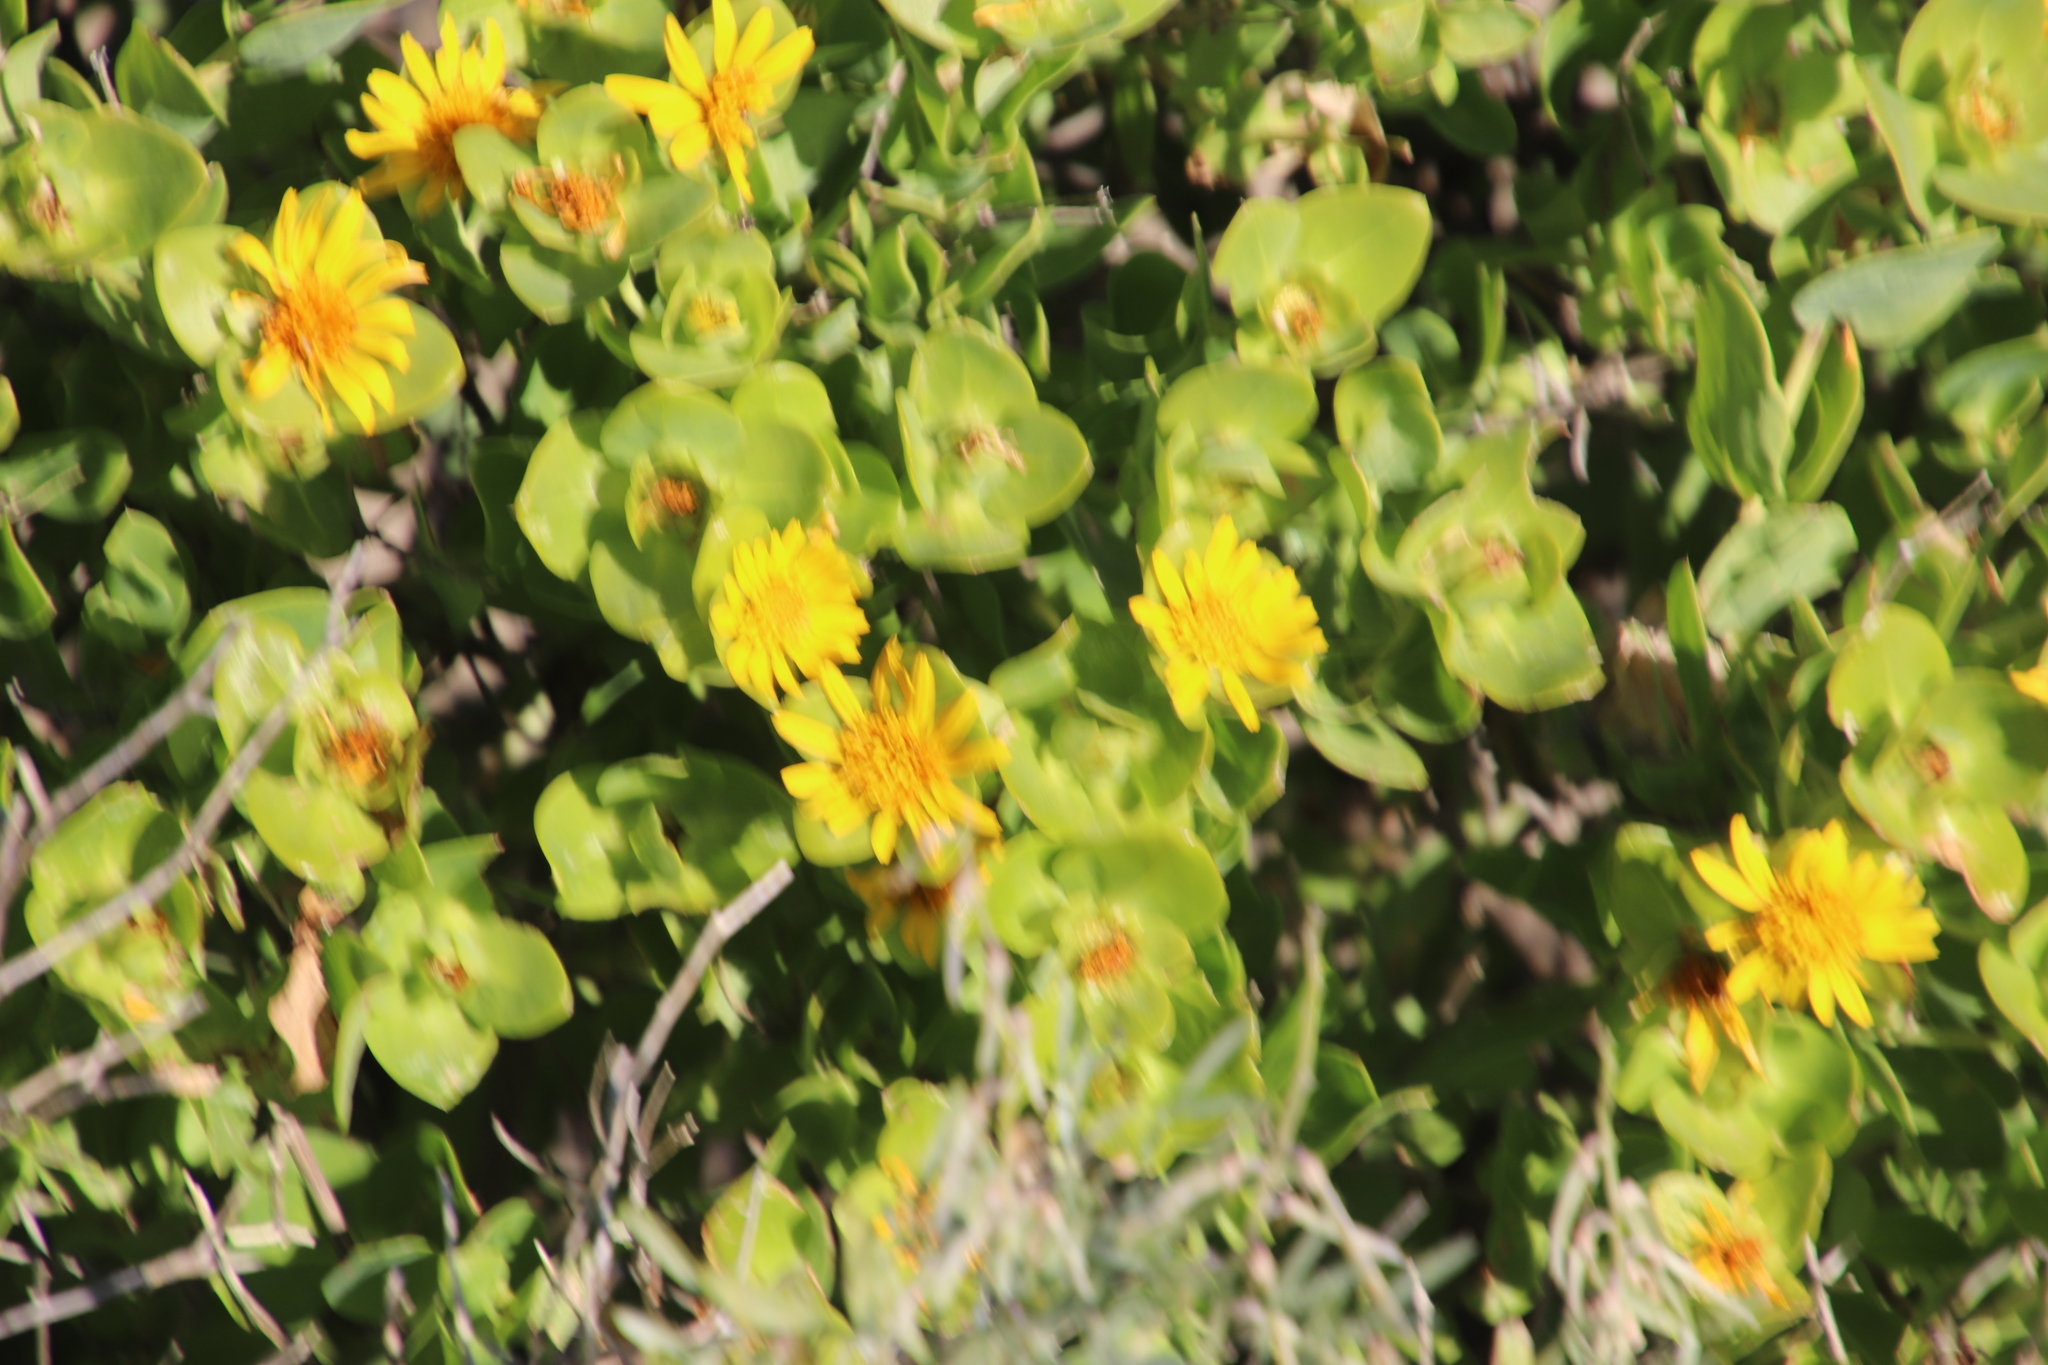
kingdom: Plantae
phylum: Tracheophyta
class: Magnoliopsida
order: Asterales
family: Asteraceae
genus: Didelta
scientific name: Didelta spinosa
